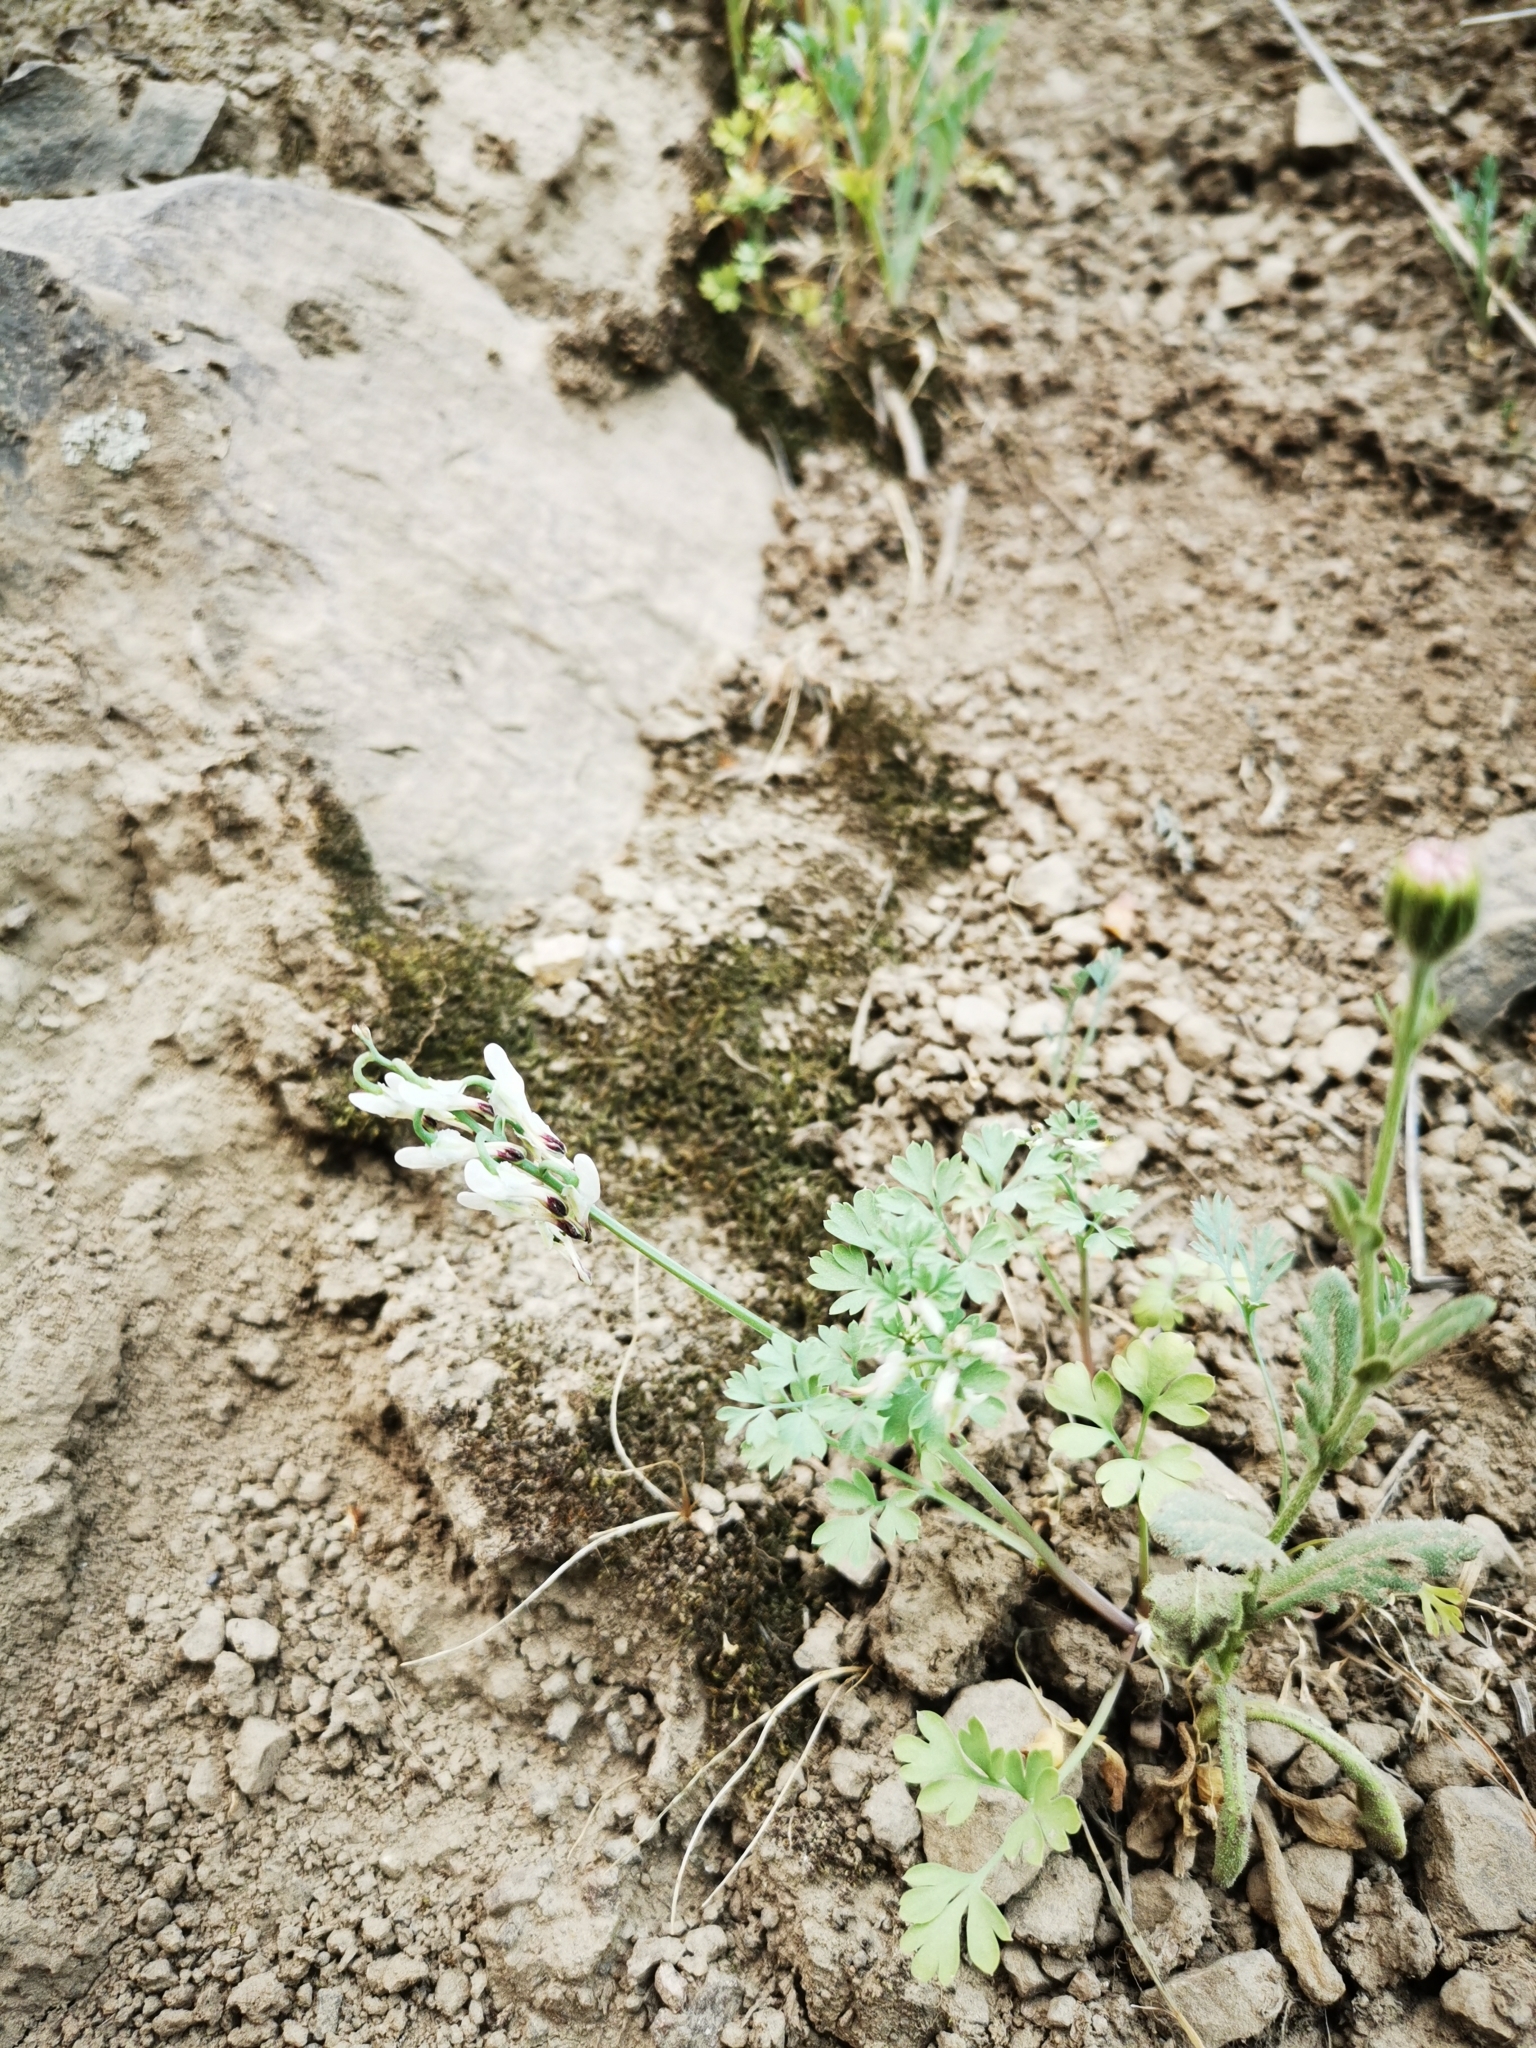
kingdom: Plantae
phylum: Tracheophyta
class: Magnoliopsida
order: Ranunculales
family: Papaveraceae
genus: Fumaria
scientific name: Fumaria capreolata
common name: White ramping-fumitory
